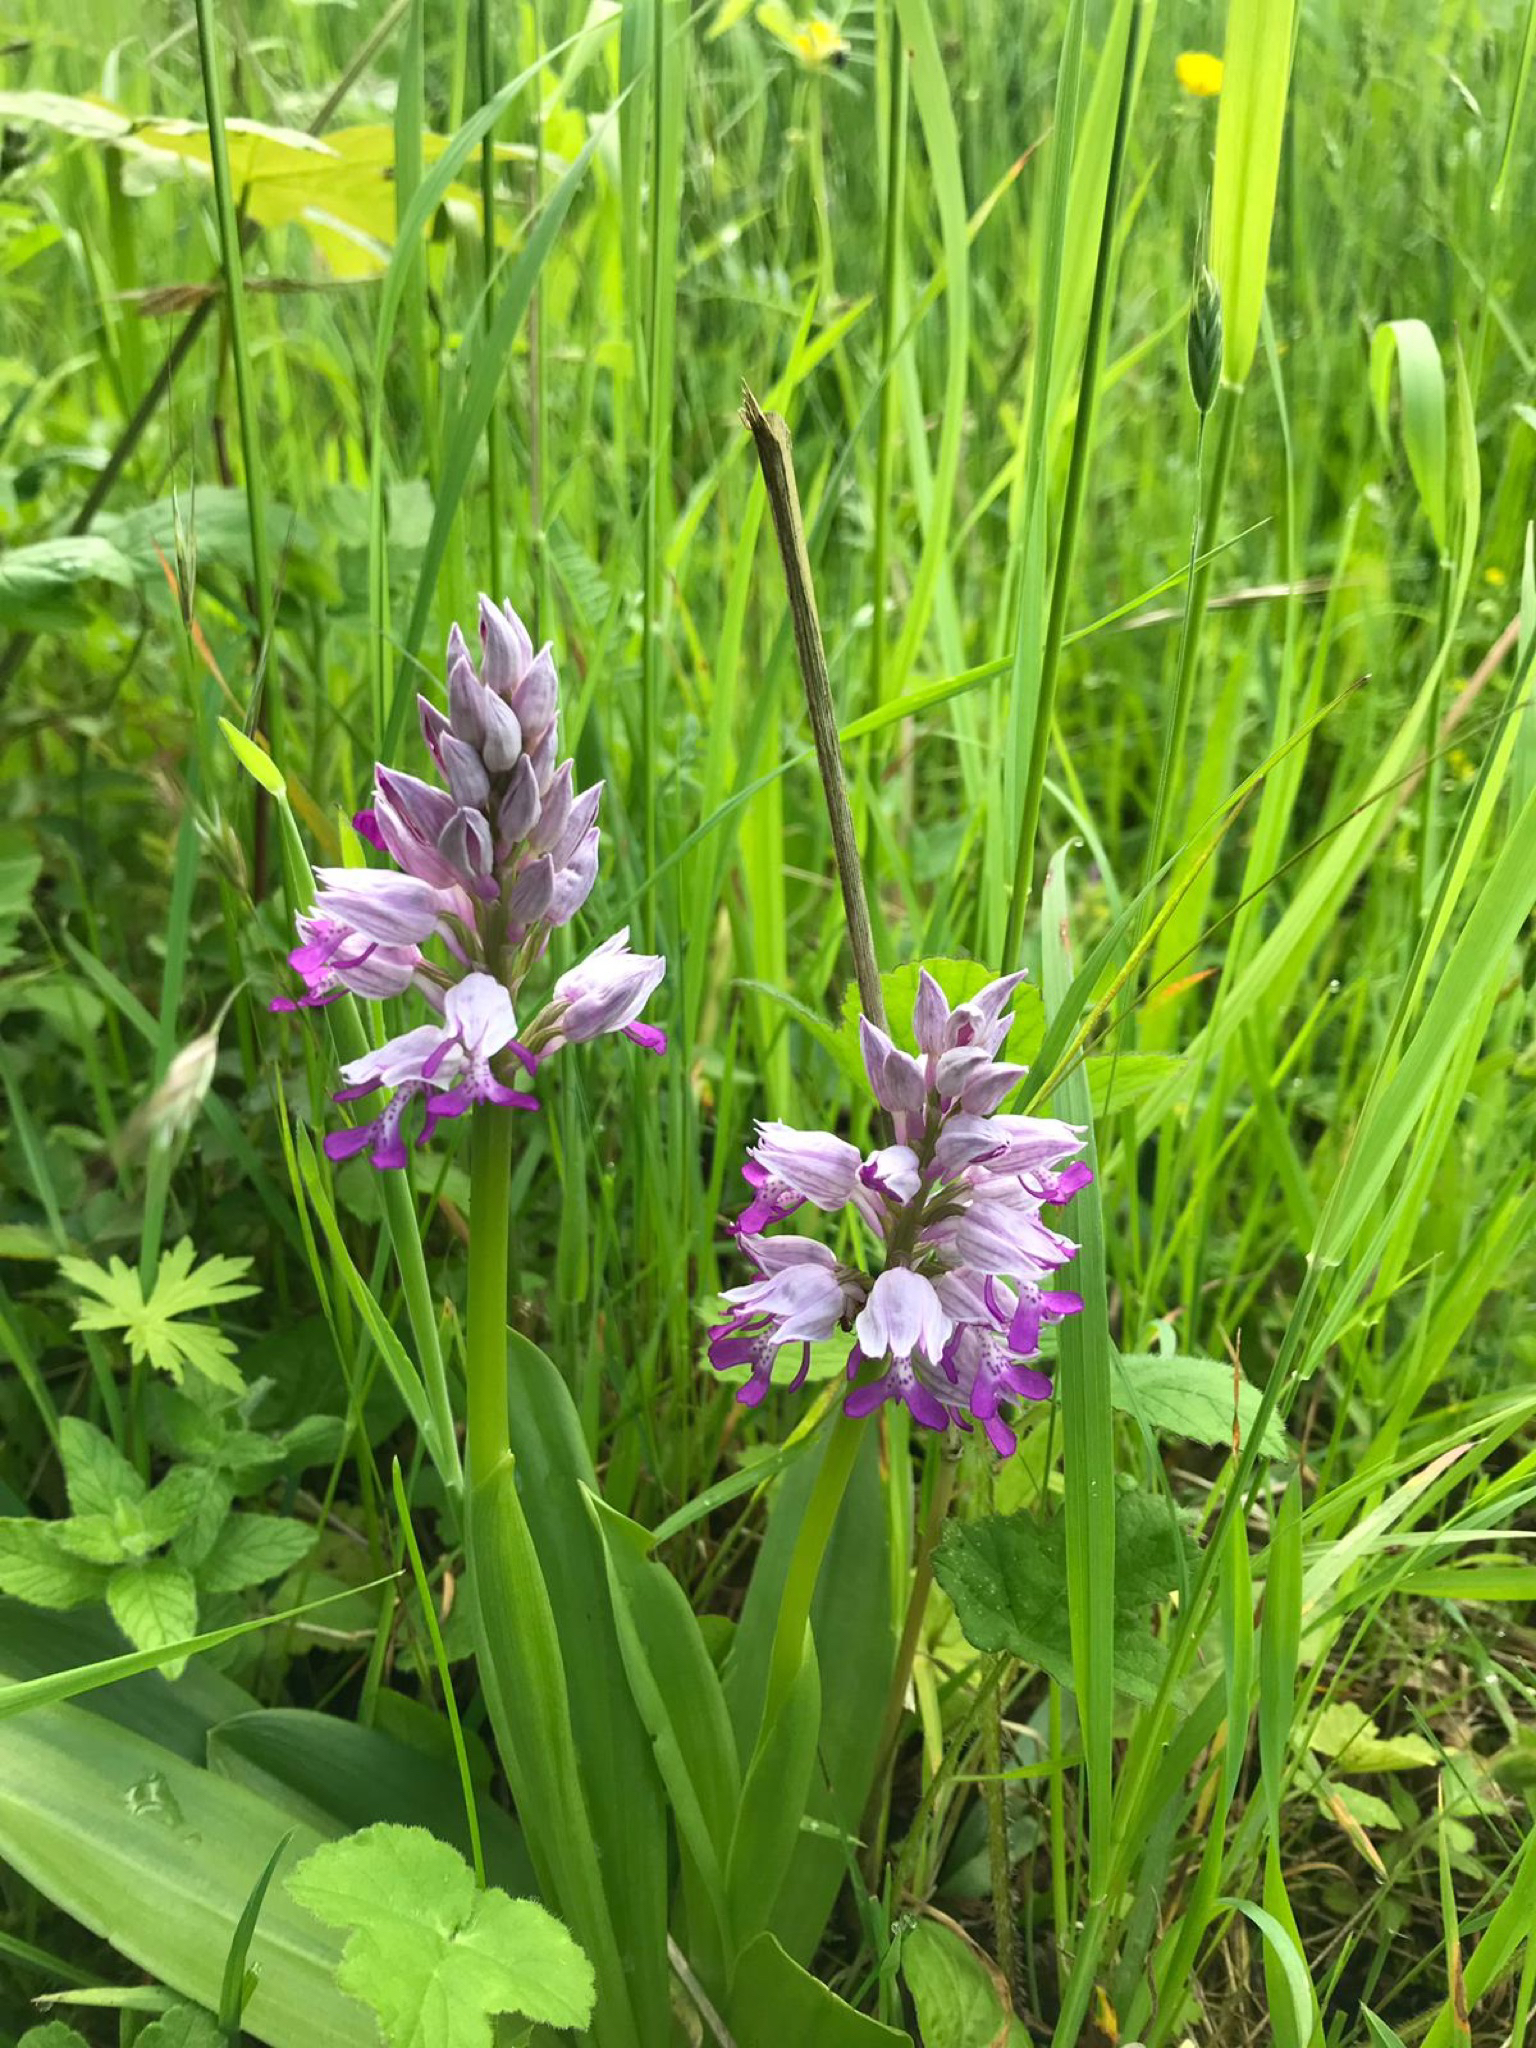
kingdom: Plantae
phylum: Tracheophyta
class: Liliopsida
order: Asparagales
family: Orchidaceae
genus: Orchis
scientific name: Orchis militaris
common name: Military orchid
